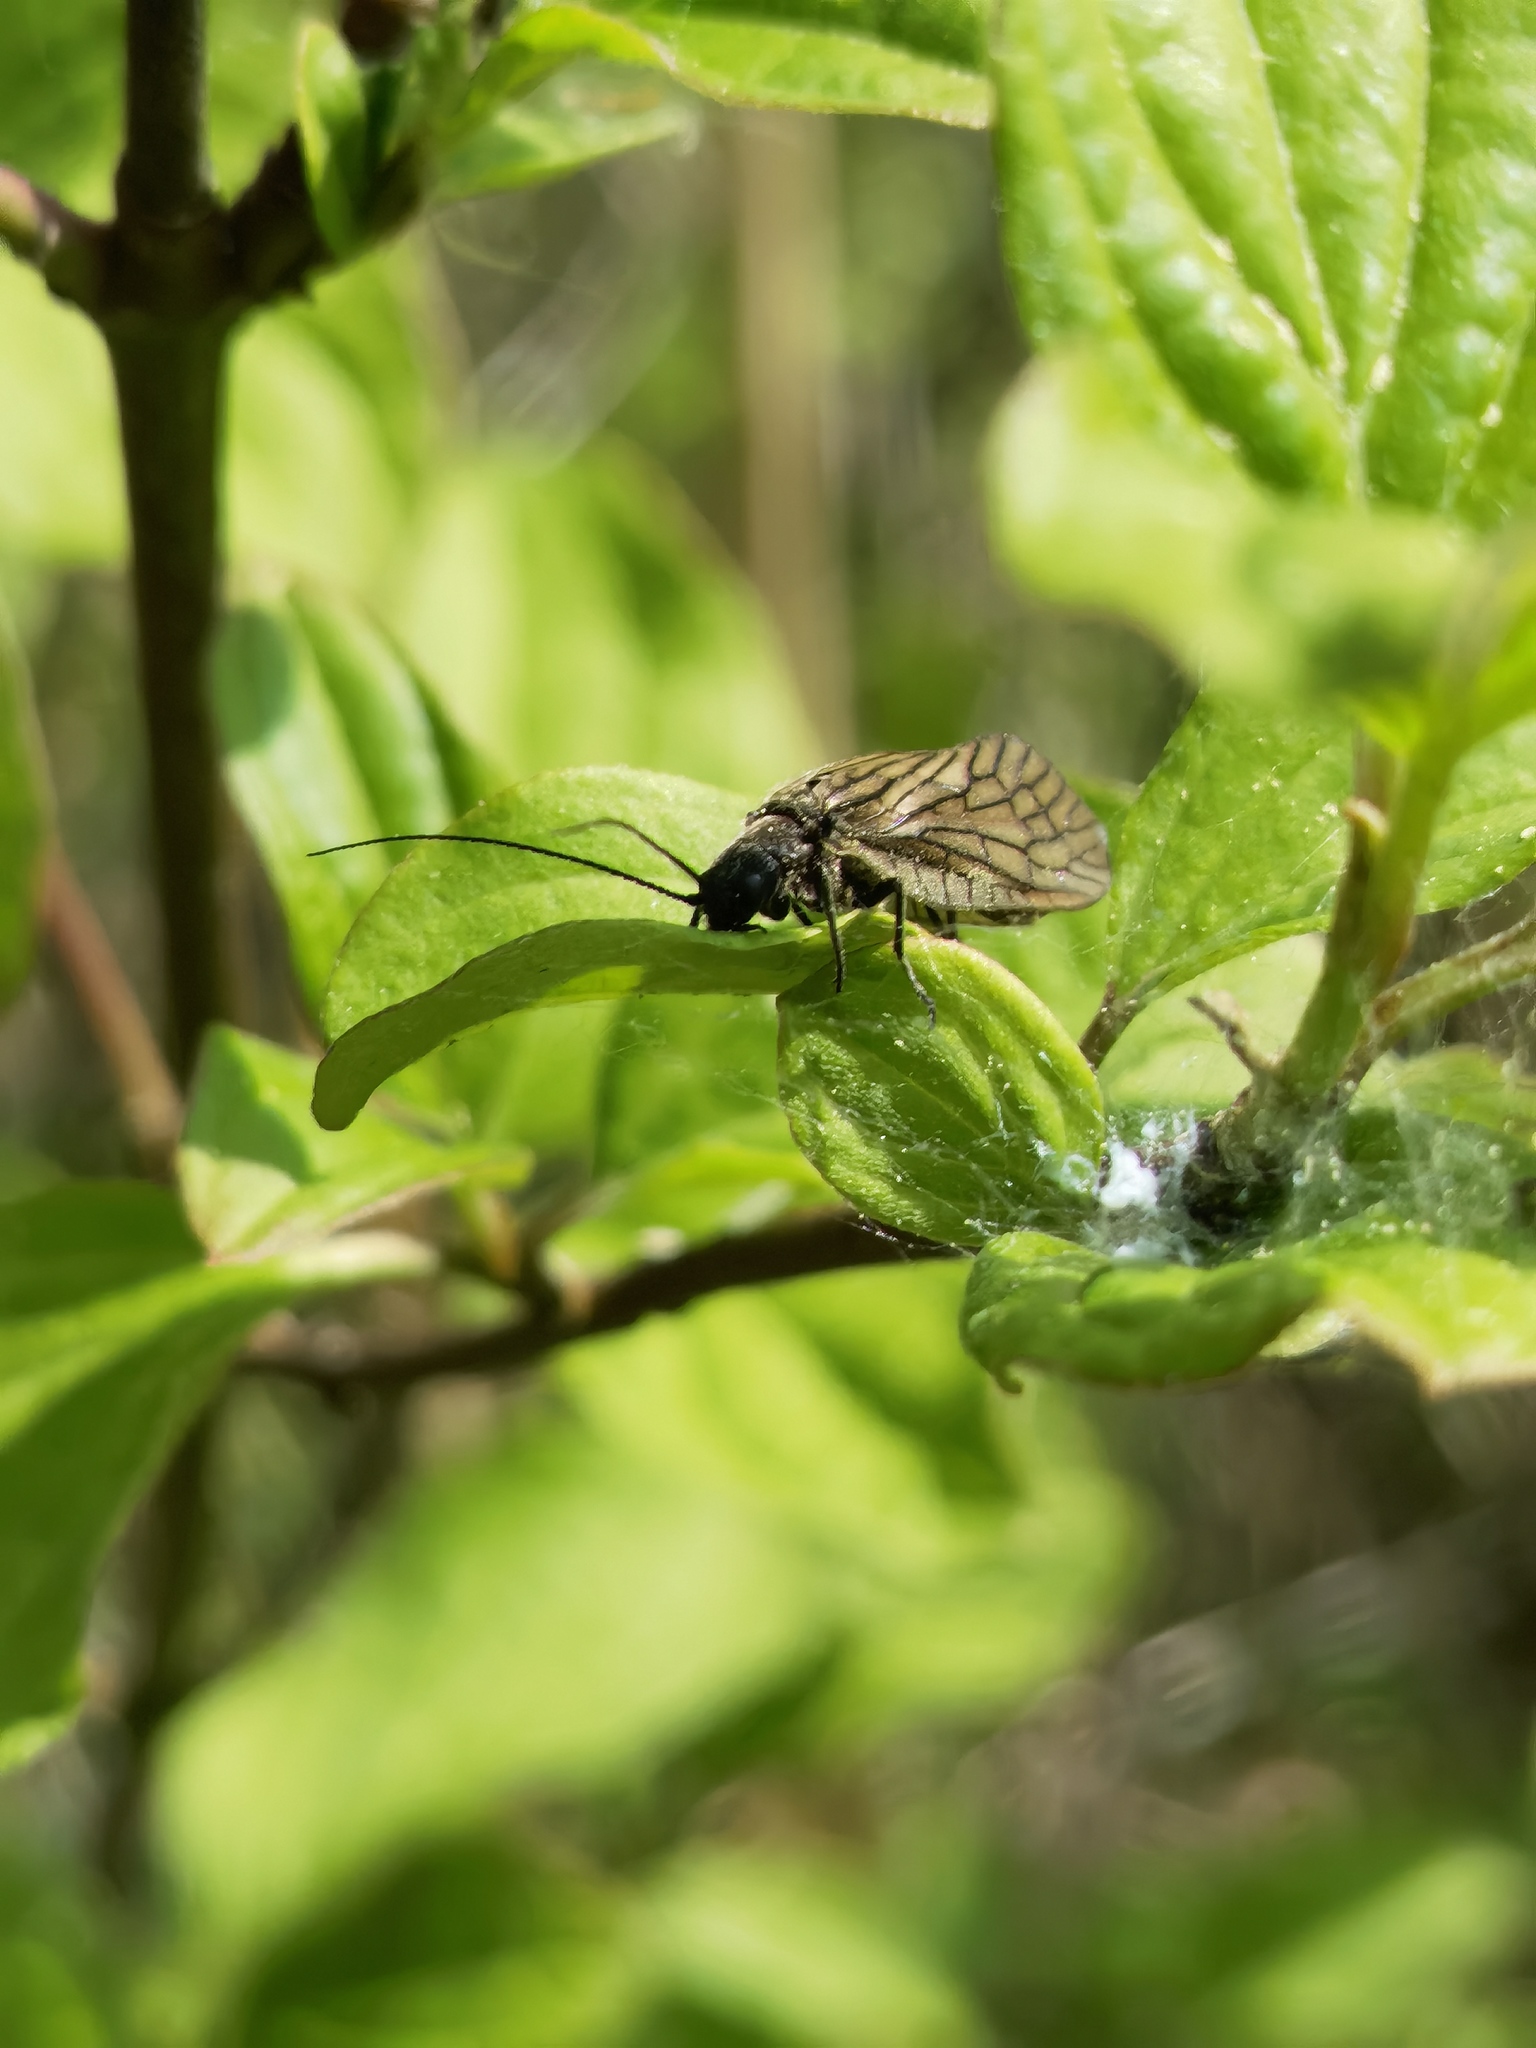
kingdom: Animalia
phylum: Arthropoda
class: Insecta
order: Megaloptera
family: Sialidae
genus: Sialis
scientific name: Sialis
